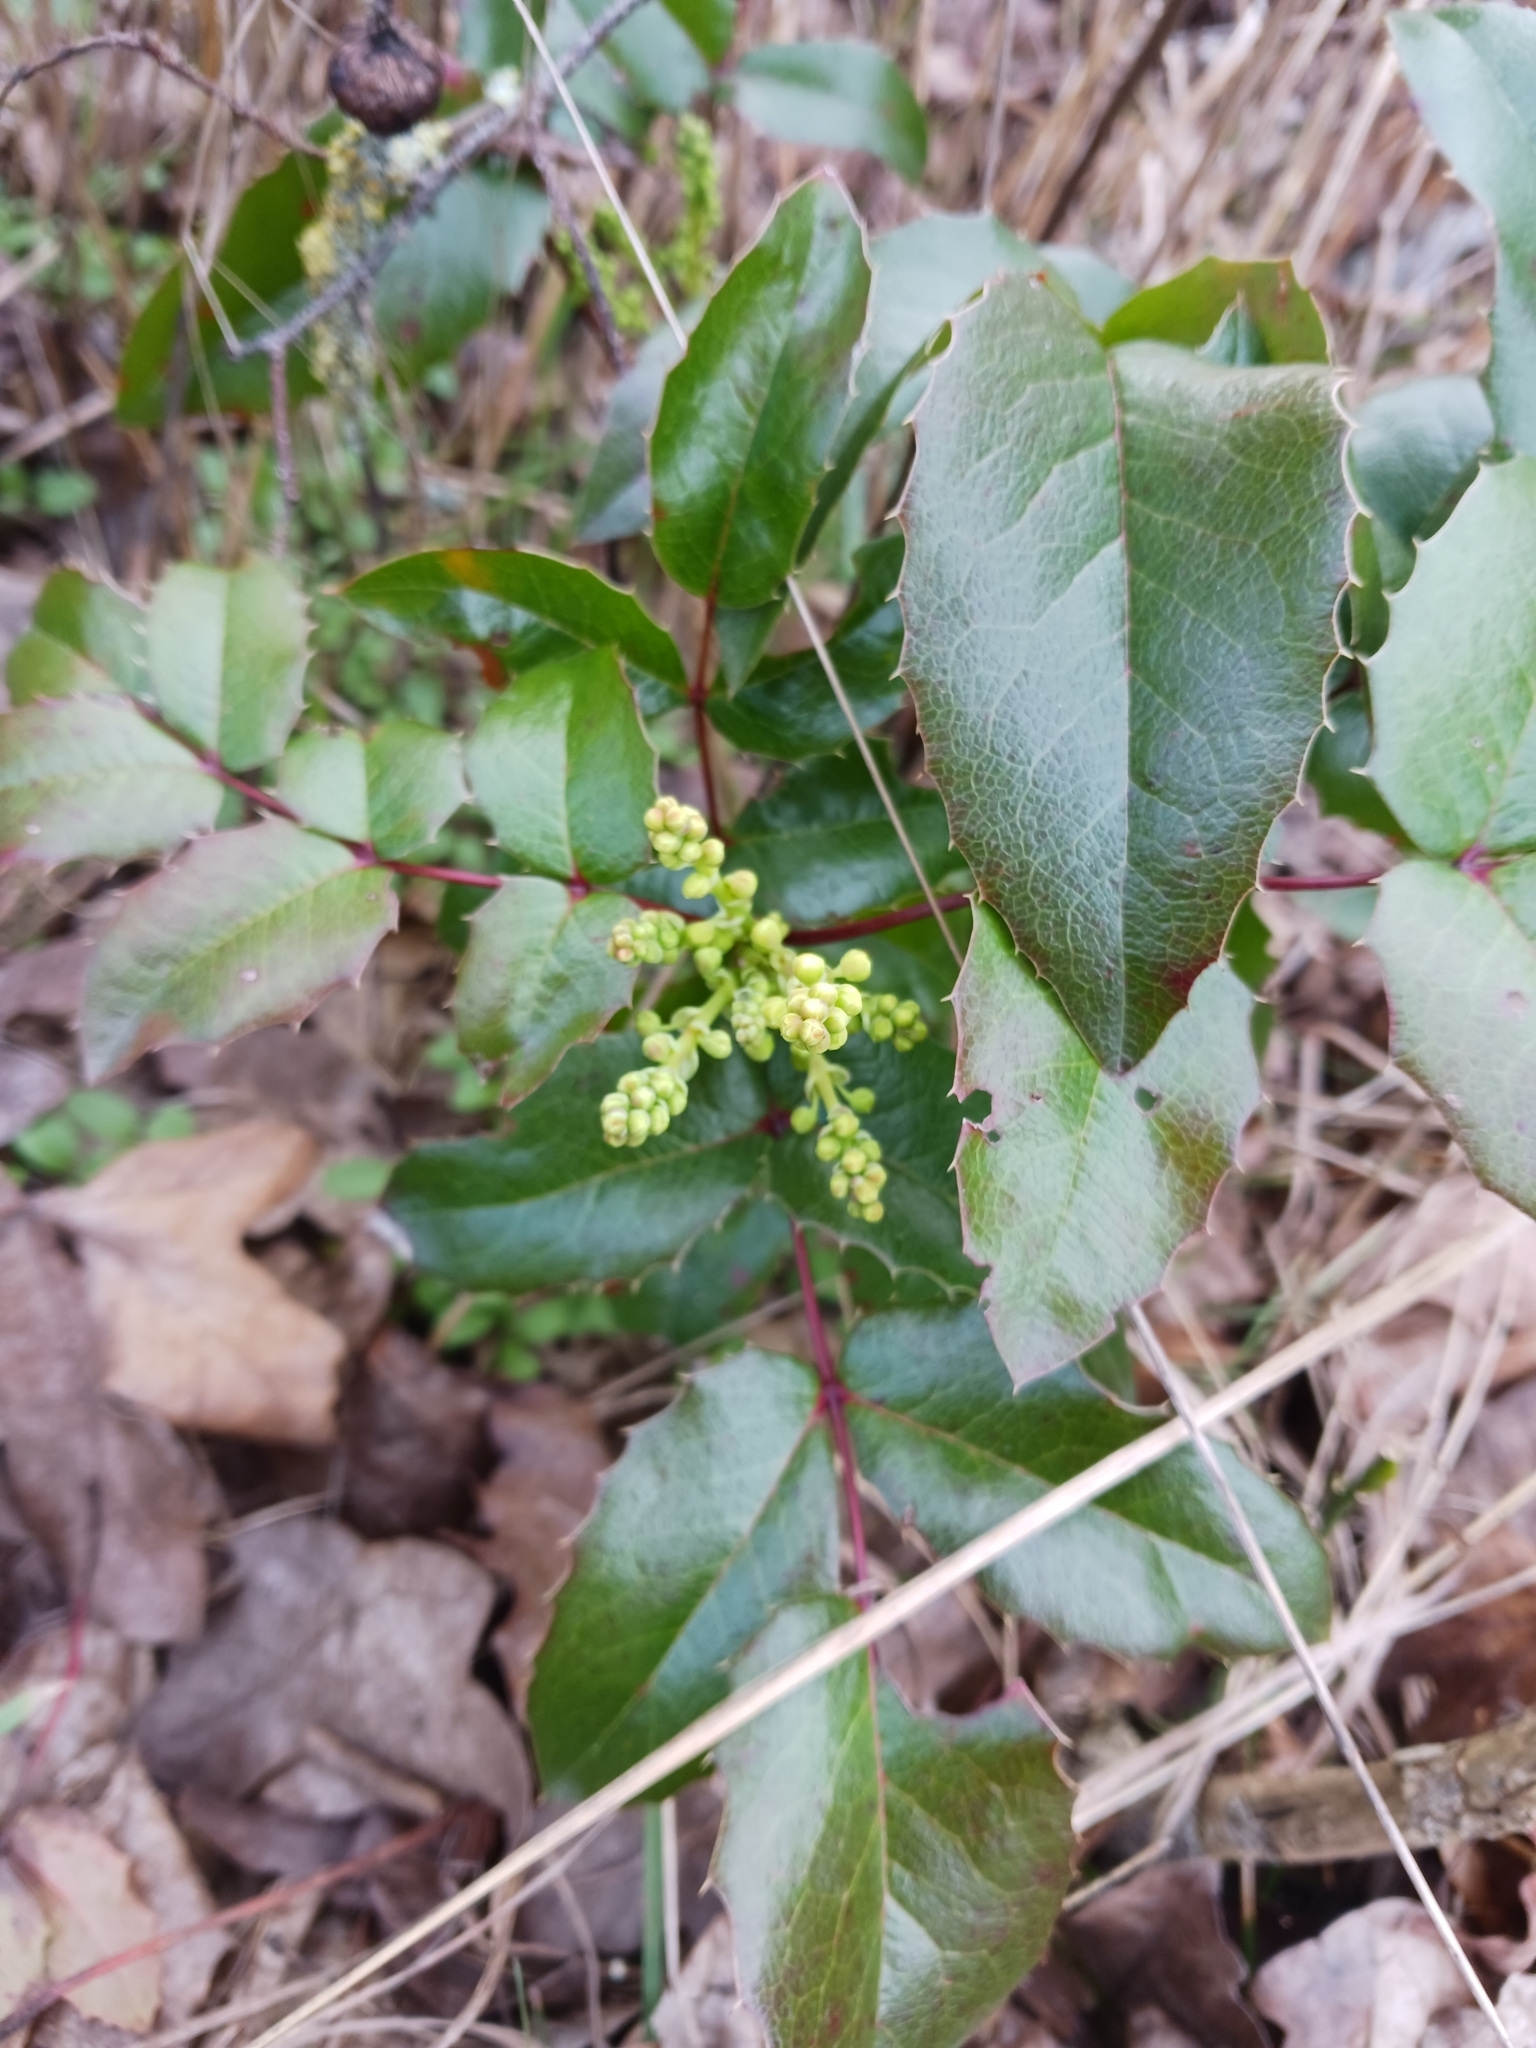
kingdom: Plantae
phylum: Tracheophyta
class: Magnoliopsida
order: Ranunculales
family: Berberidaceae
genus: Mahonia
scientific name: Mahonia aquifolium
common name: Oregon-grape
